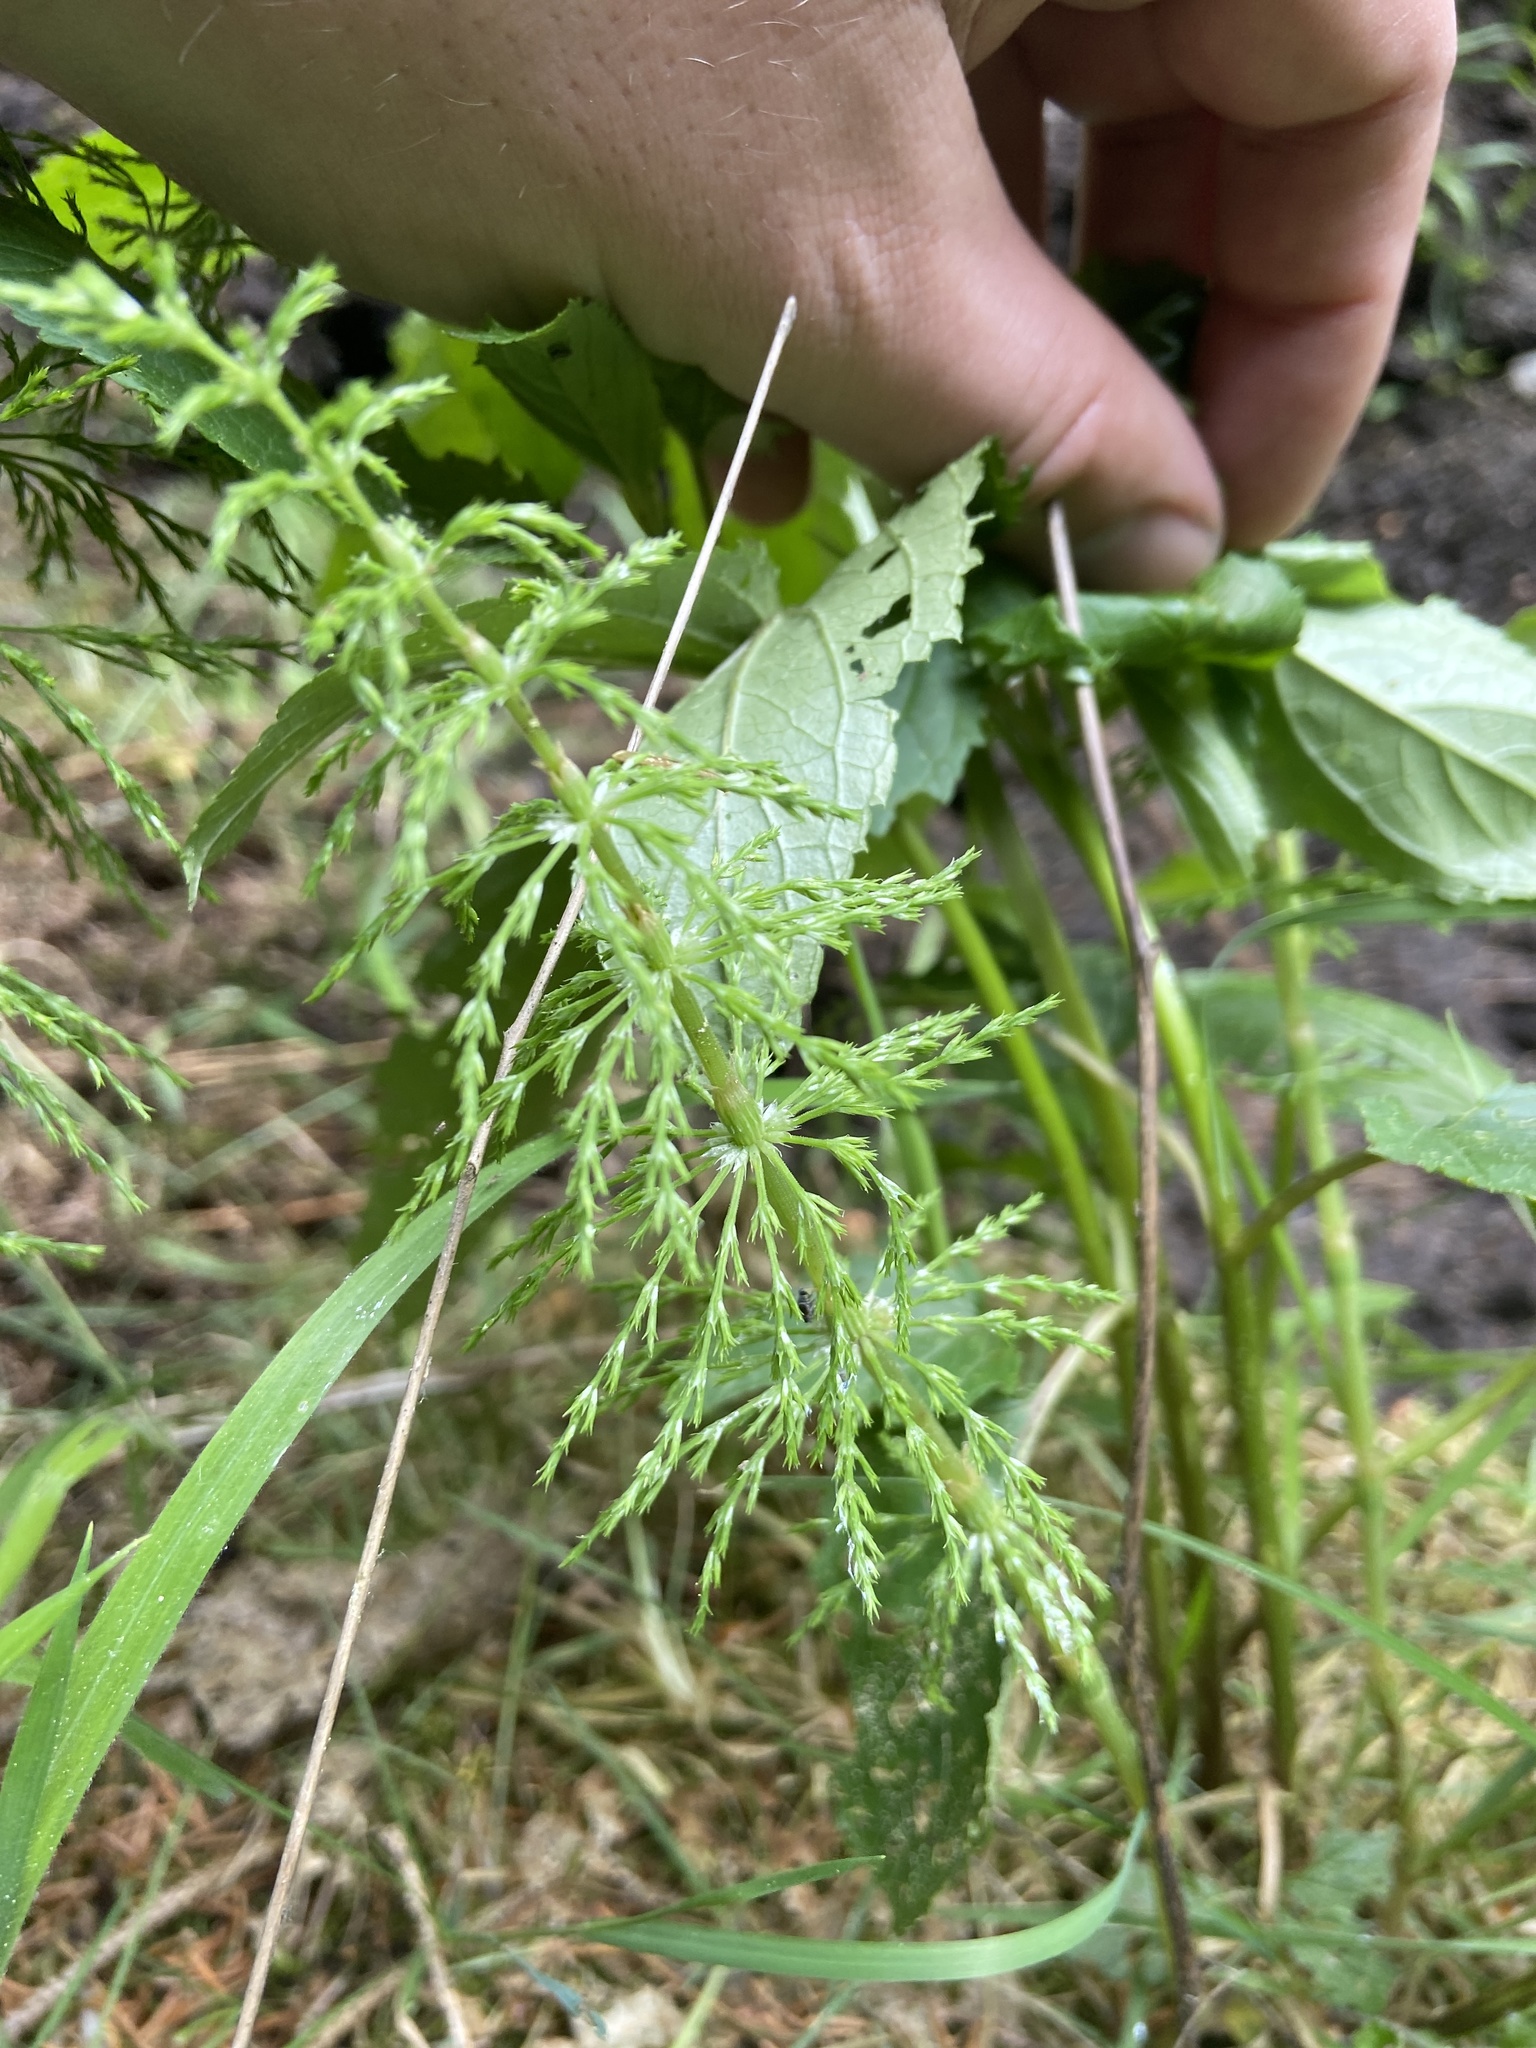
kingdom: Plantae
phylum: Tracheophyta
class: Polypodiopsida
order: Equisetales
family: Equisetaceae
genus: Equisetum
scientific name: Equisetum sylvaticum
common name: Wood horsetail
